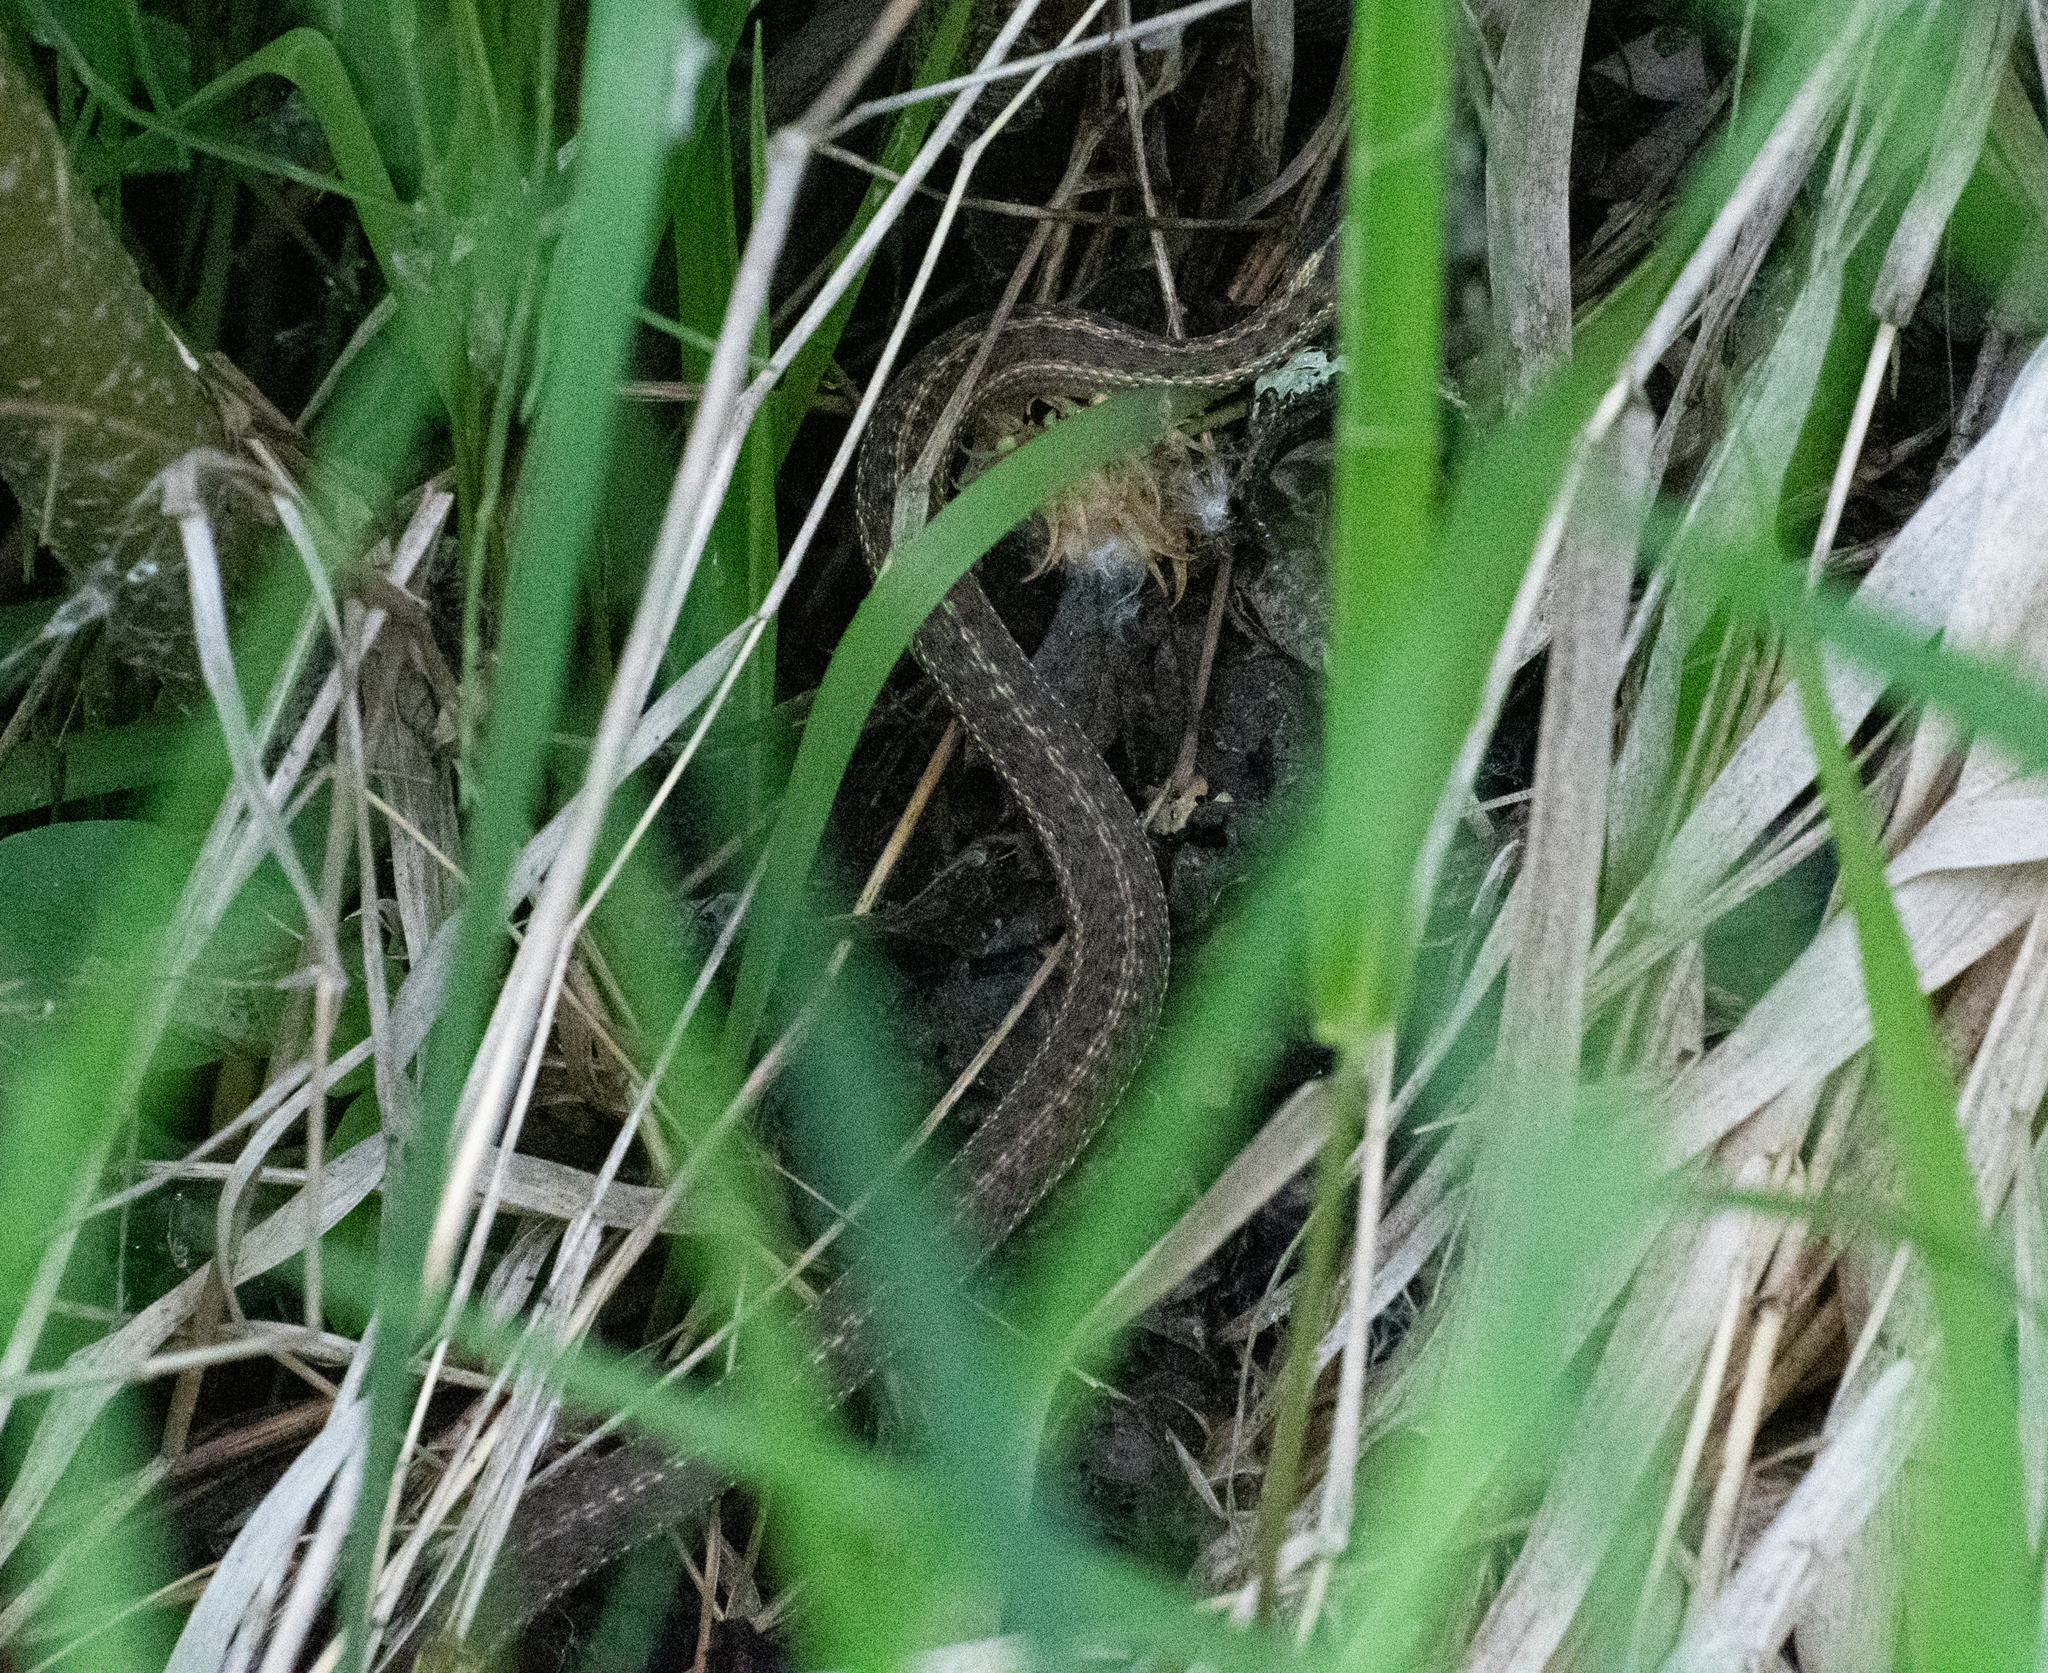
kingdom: Animalia
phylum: Chordata
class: Squamata
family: Colubridae
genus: Thamnophis
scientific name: Thamnophis elegans
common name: Western terrestrial garter snake
